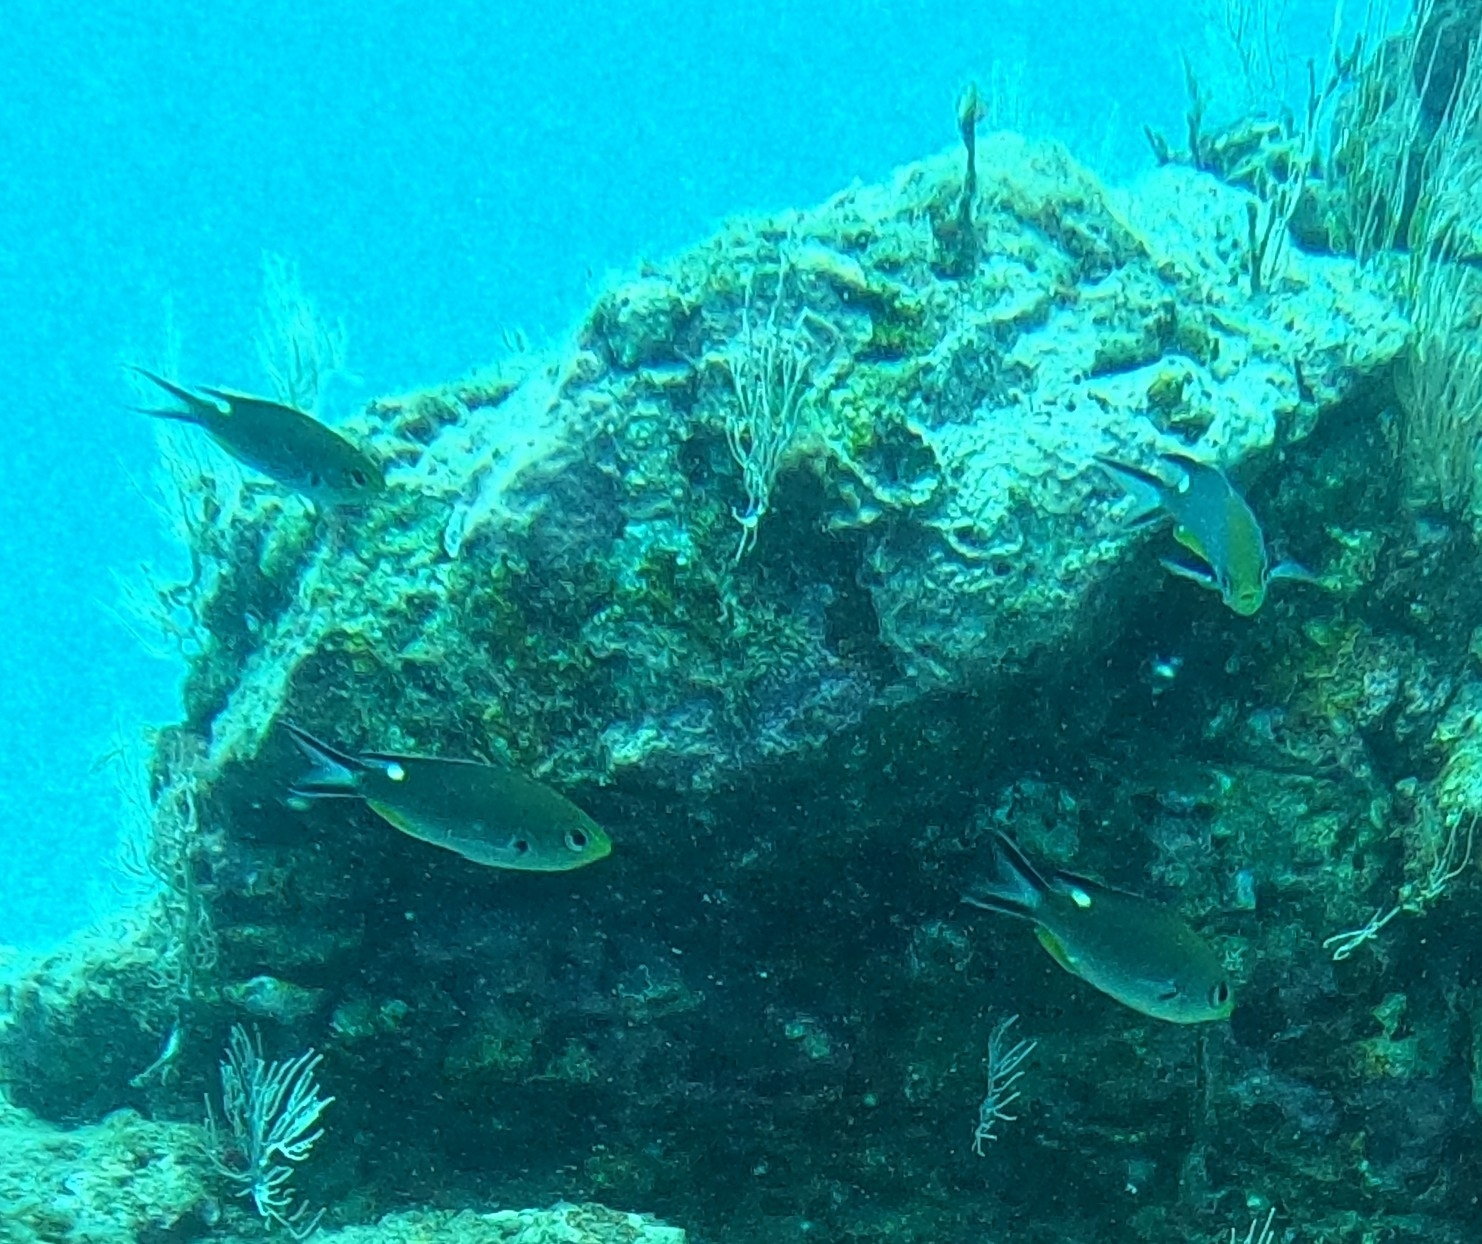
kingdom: Animalia
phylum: Chordata
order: Perciformes
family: Pomacentridae
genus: Chromis
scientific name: Chromis atrilobata
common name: Scissortail damselfish
